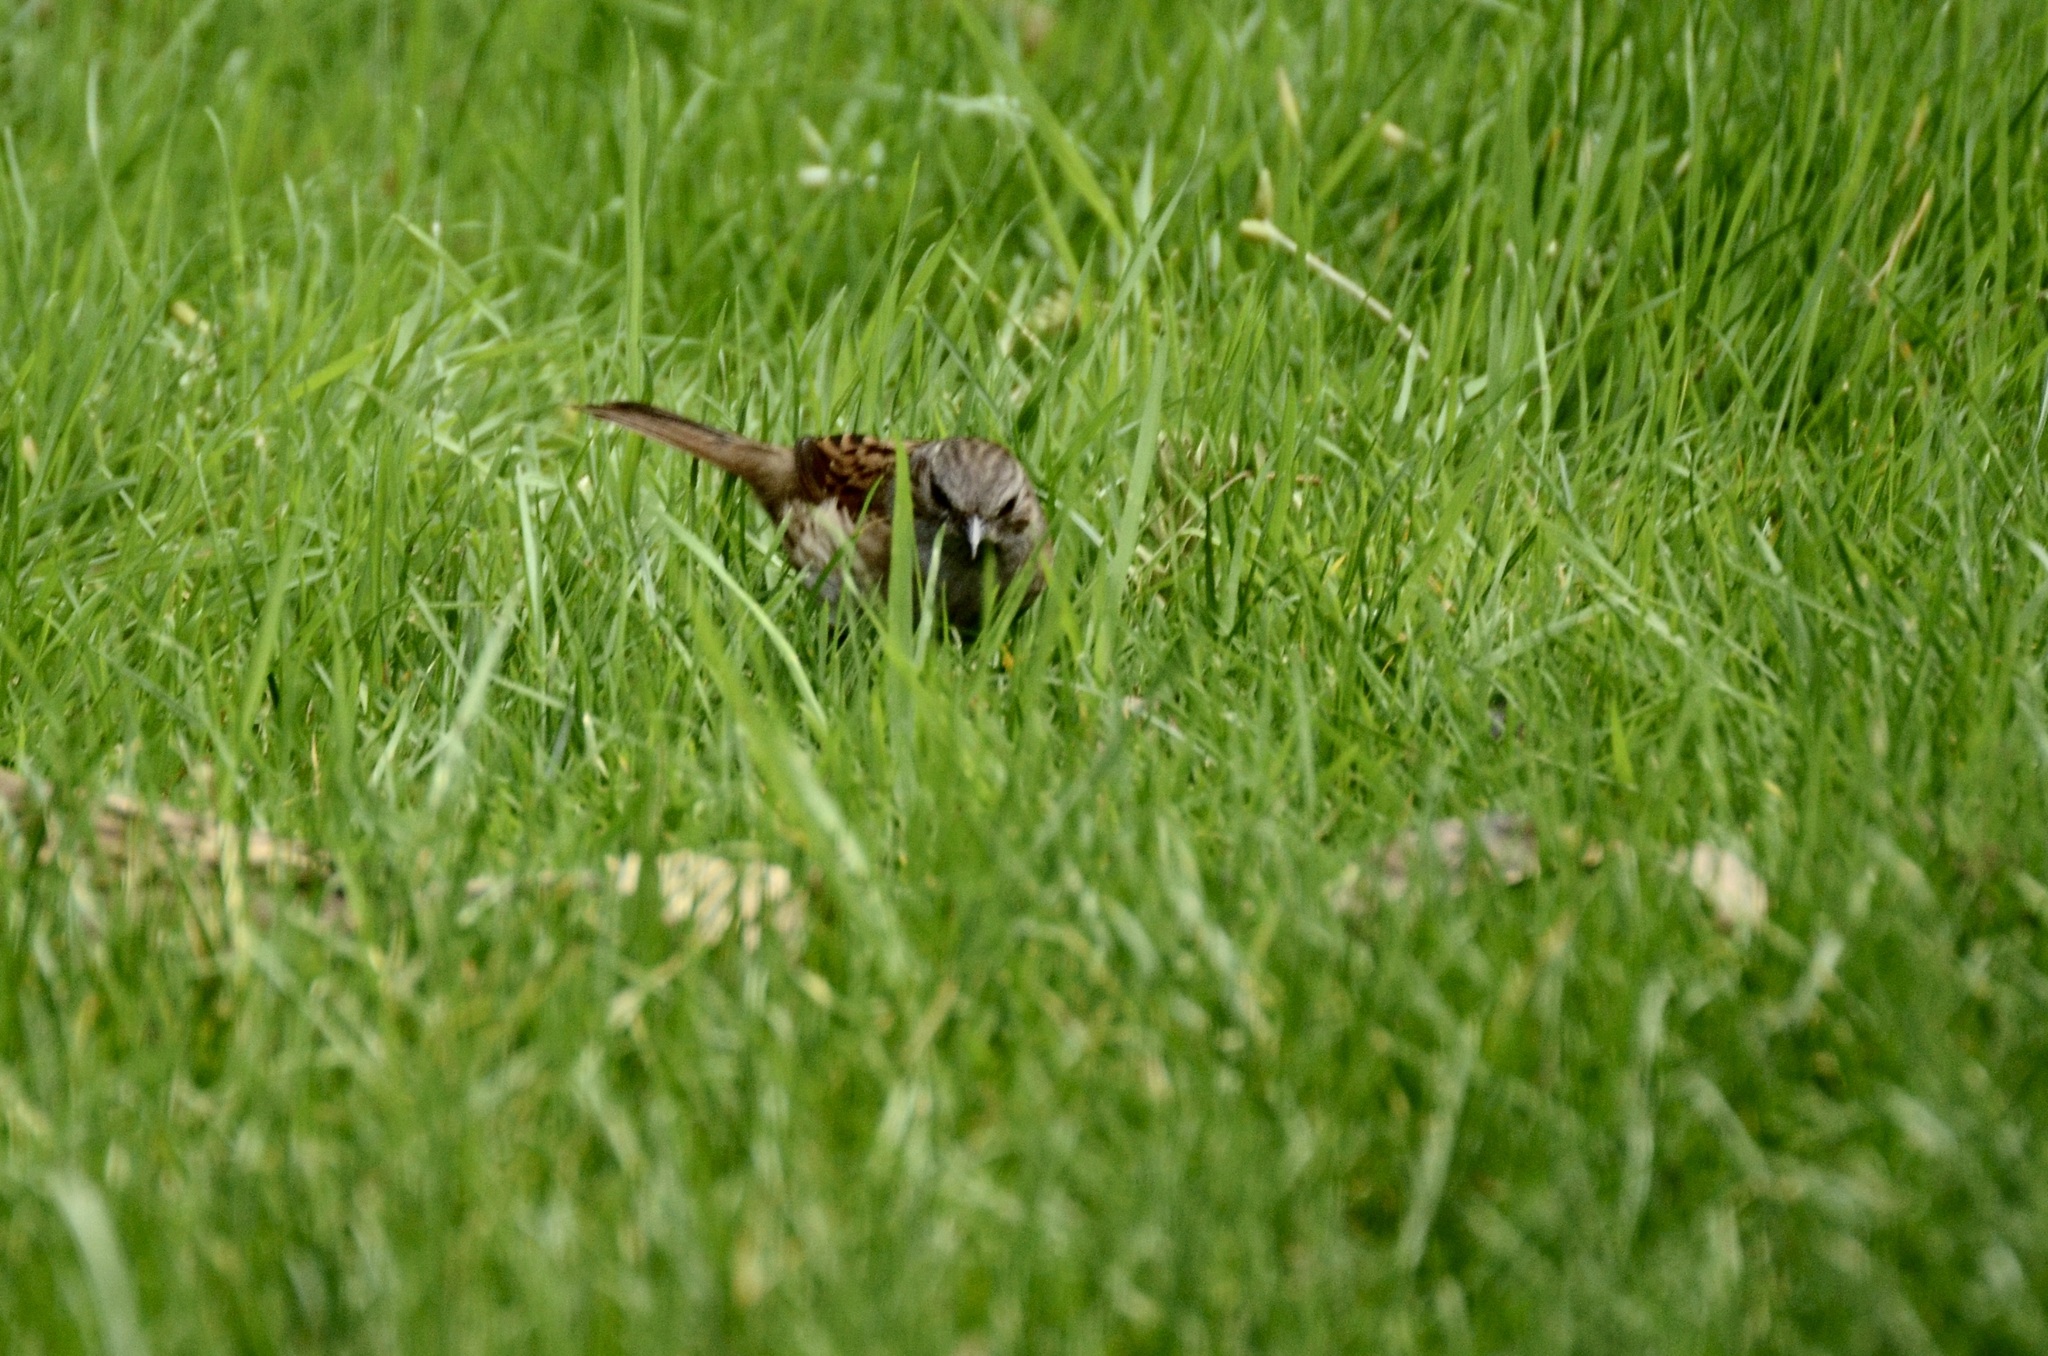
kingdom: Animalia
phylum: Chordata
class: Aves
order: Passeriformes
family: Turdidae
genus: Turdus
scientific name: Turdus merula
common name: Common blackbird
